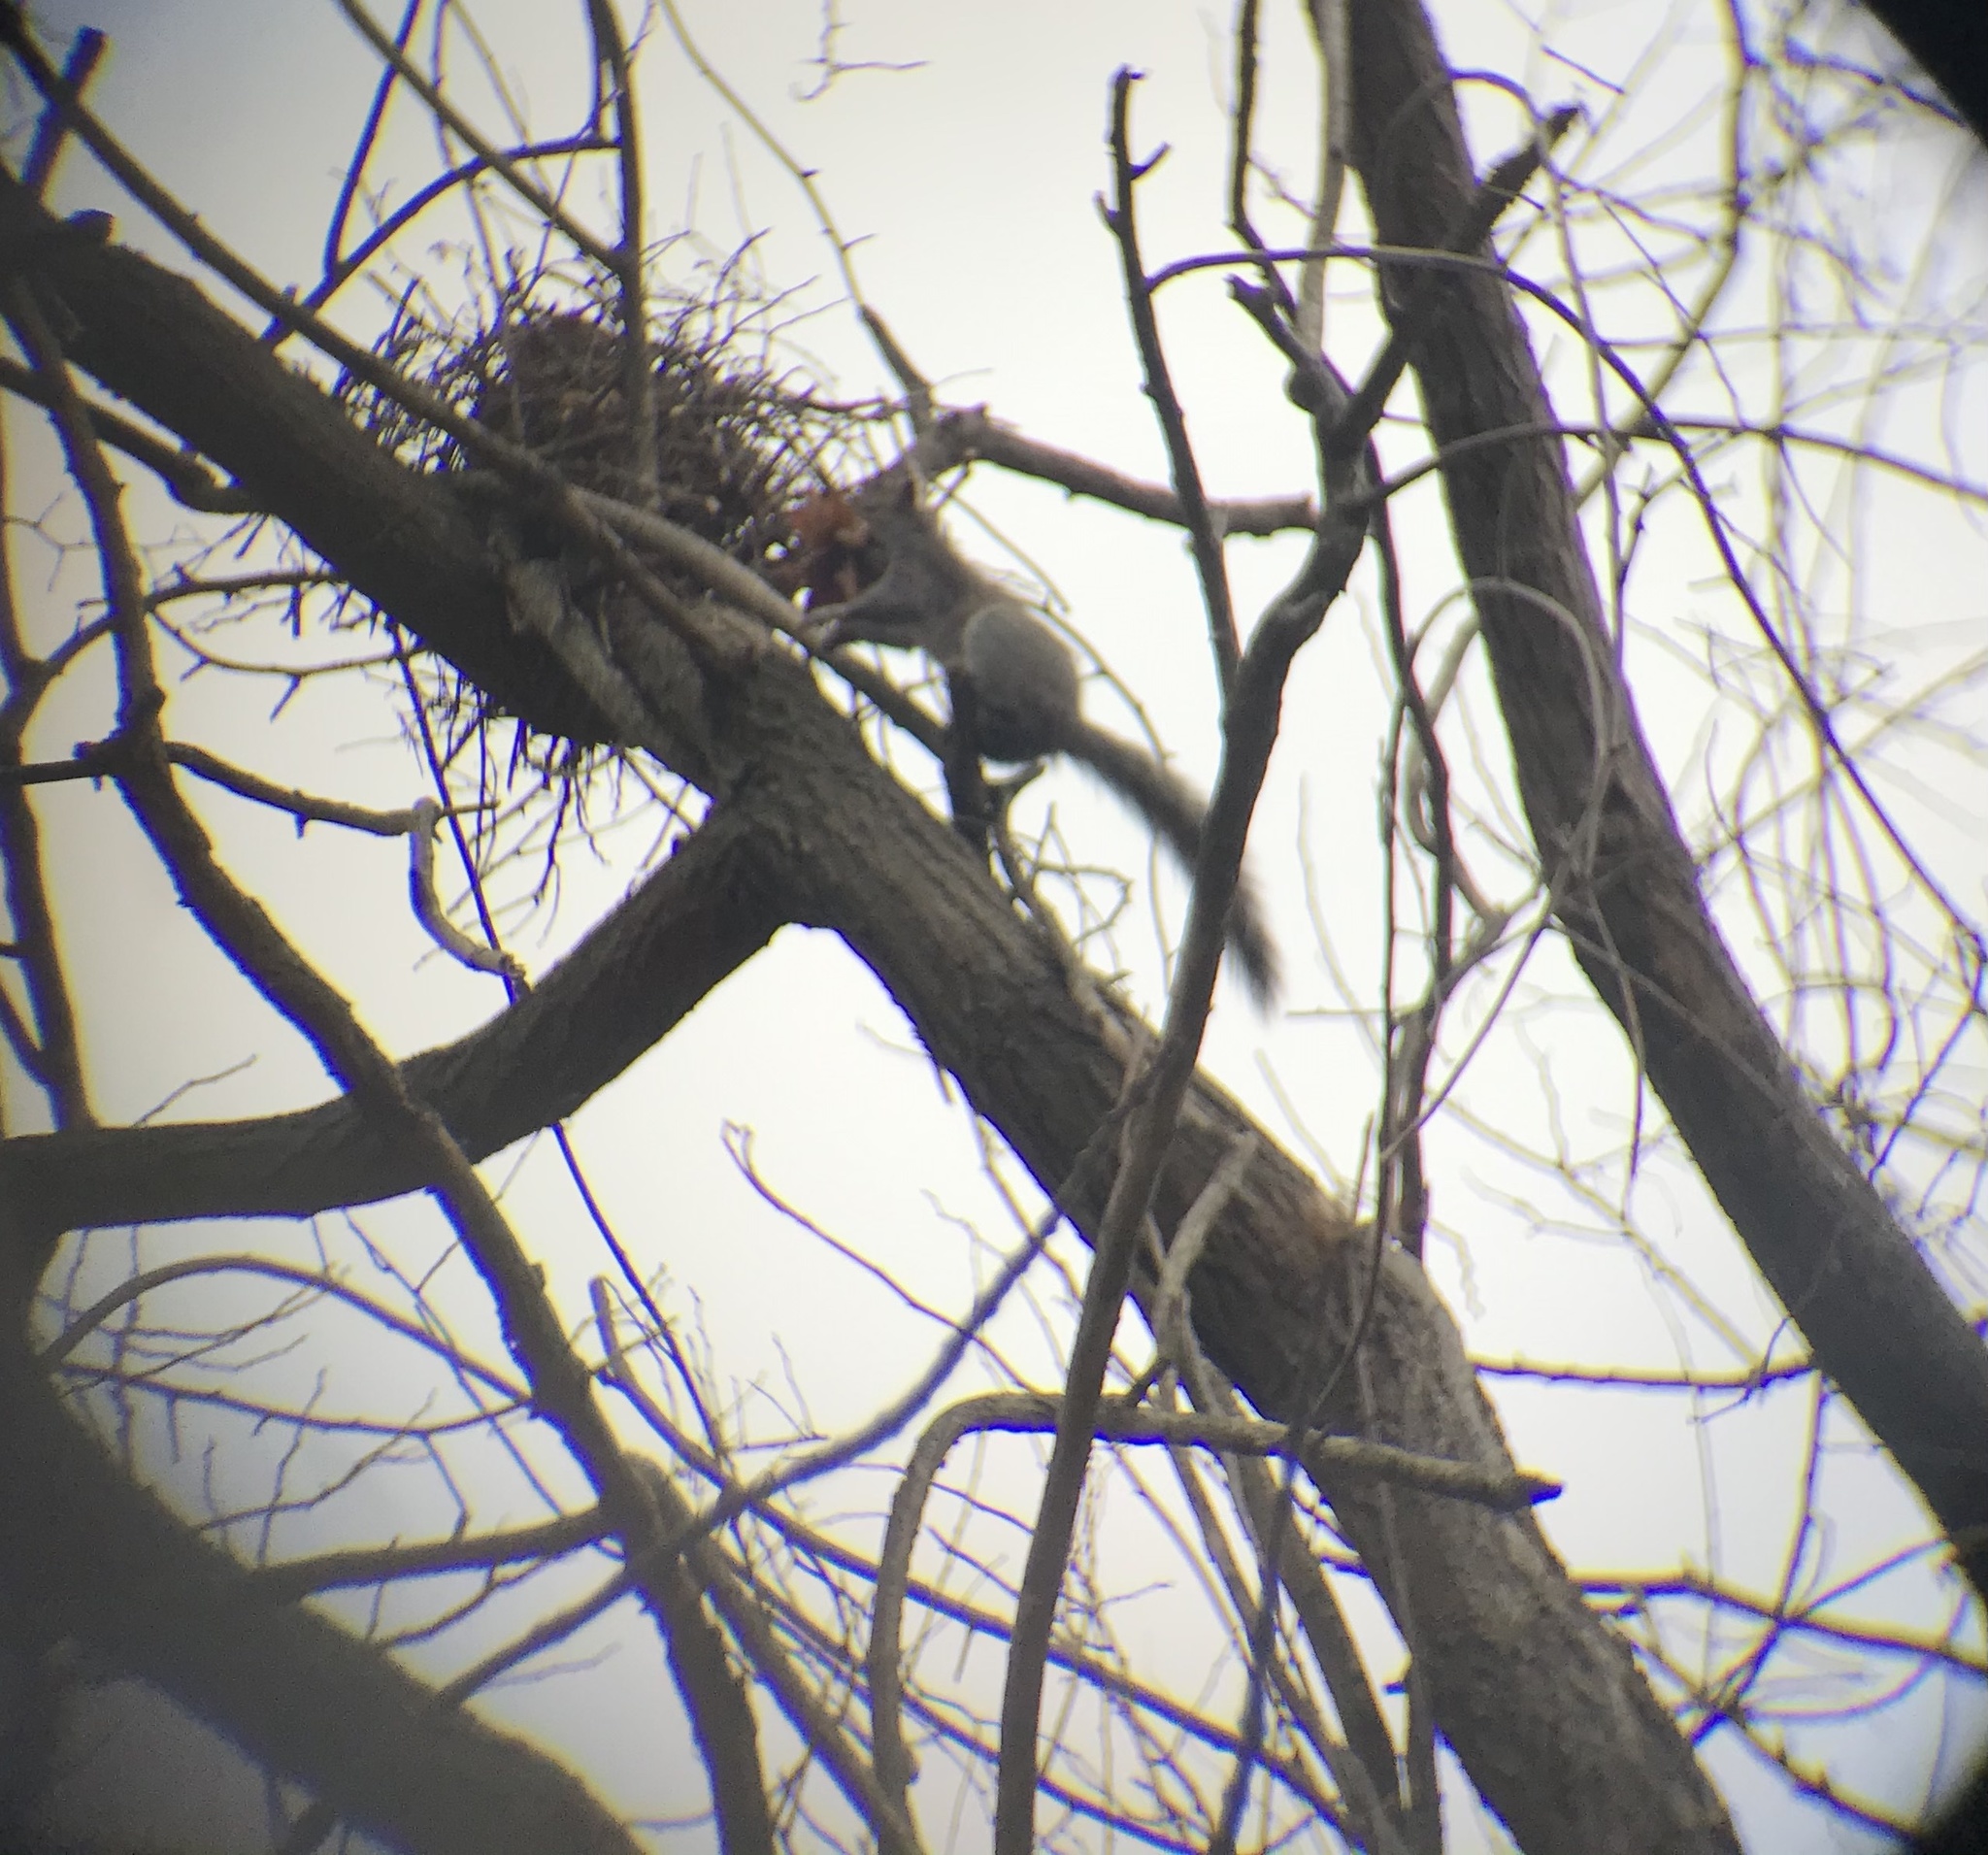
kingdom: Animalia
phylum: Chordata
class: Mammalia
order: Rodentia
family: Sciuridae
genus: Sciurus
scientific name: Sciurus carolinensis
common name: Eastern gray squirrel
